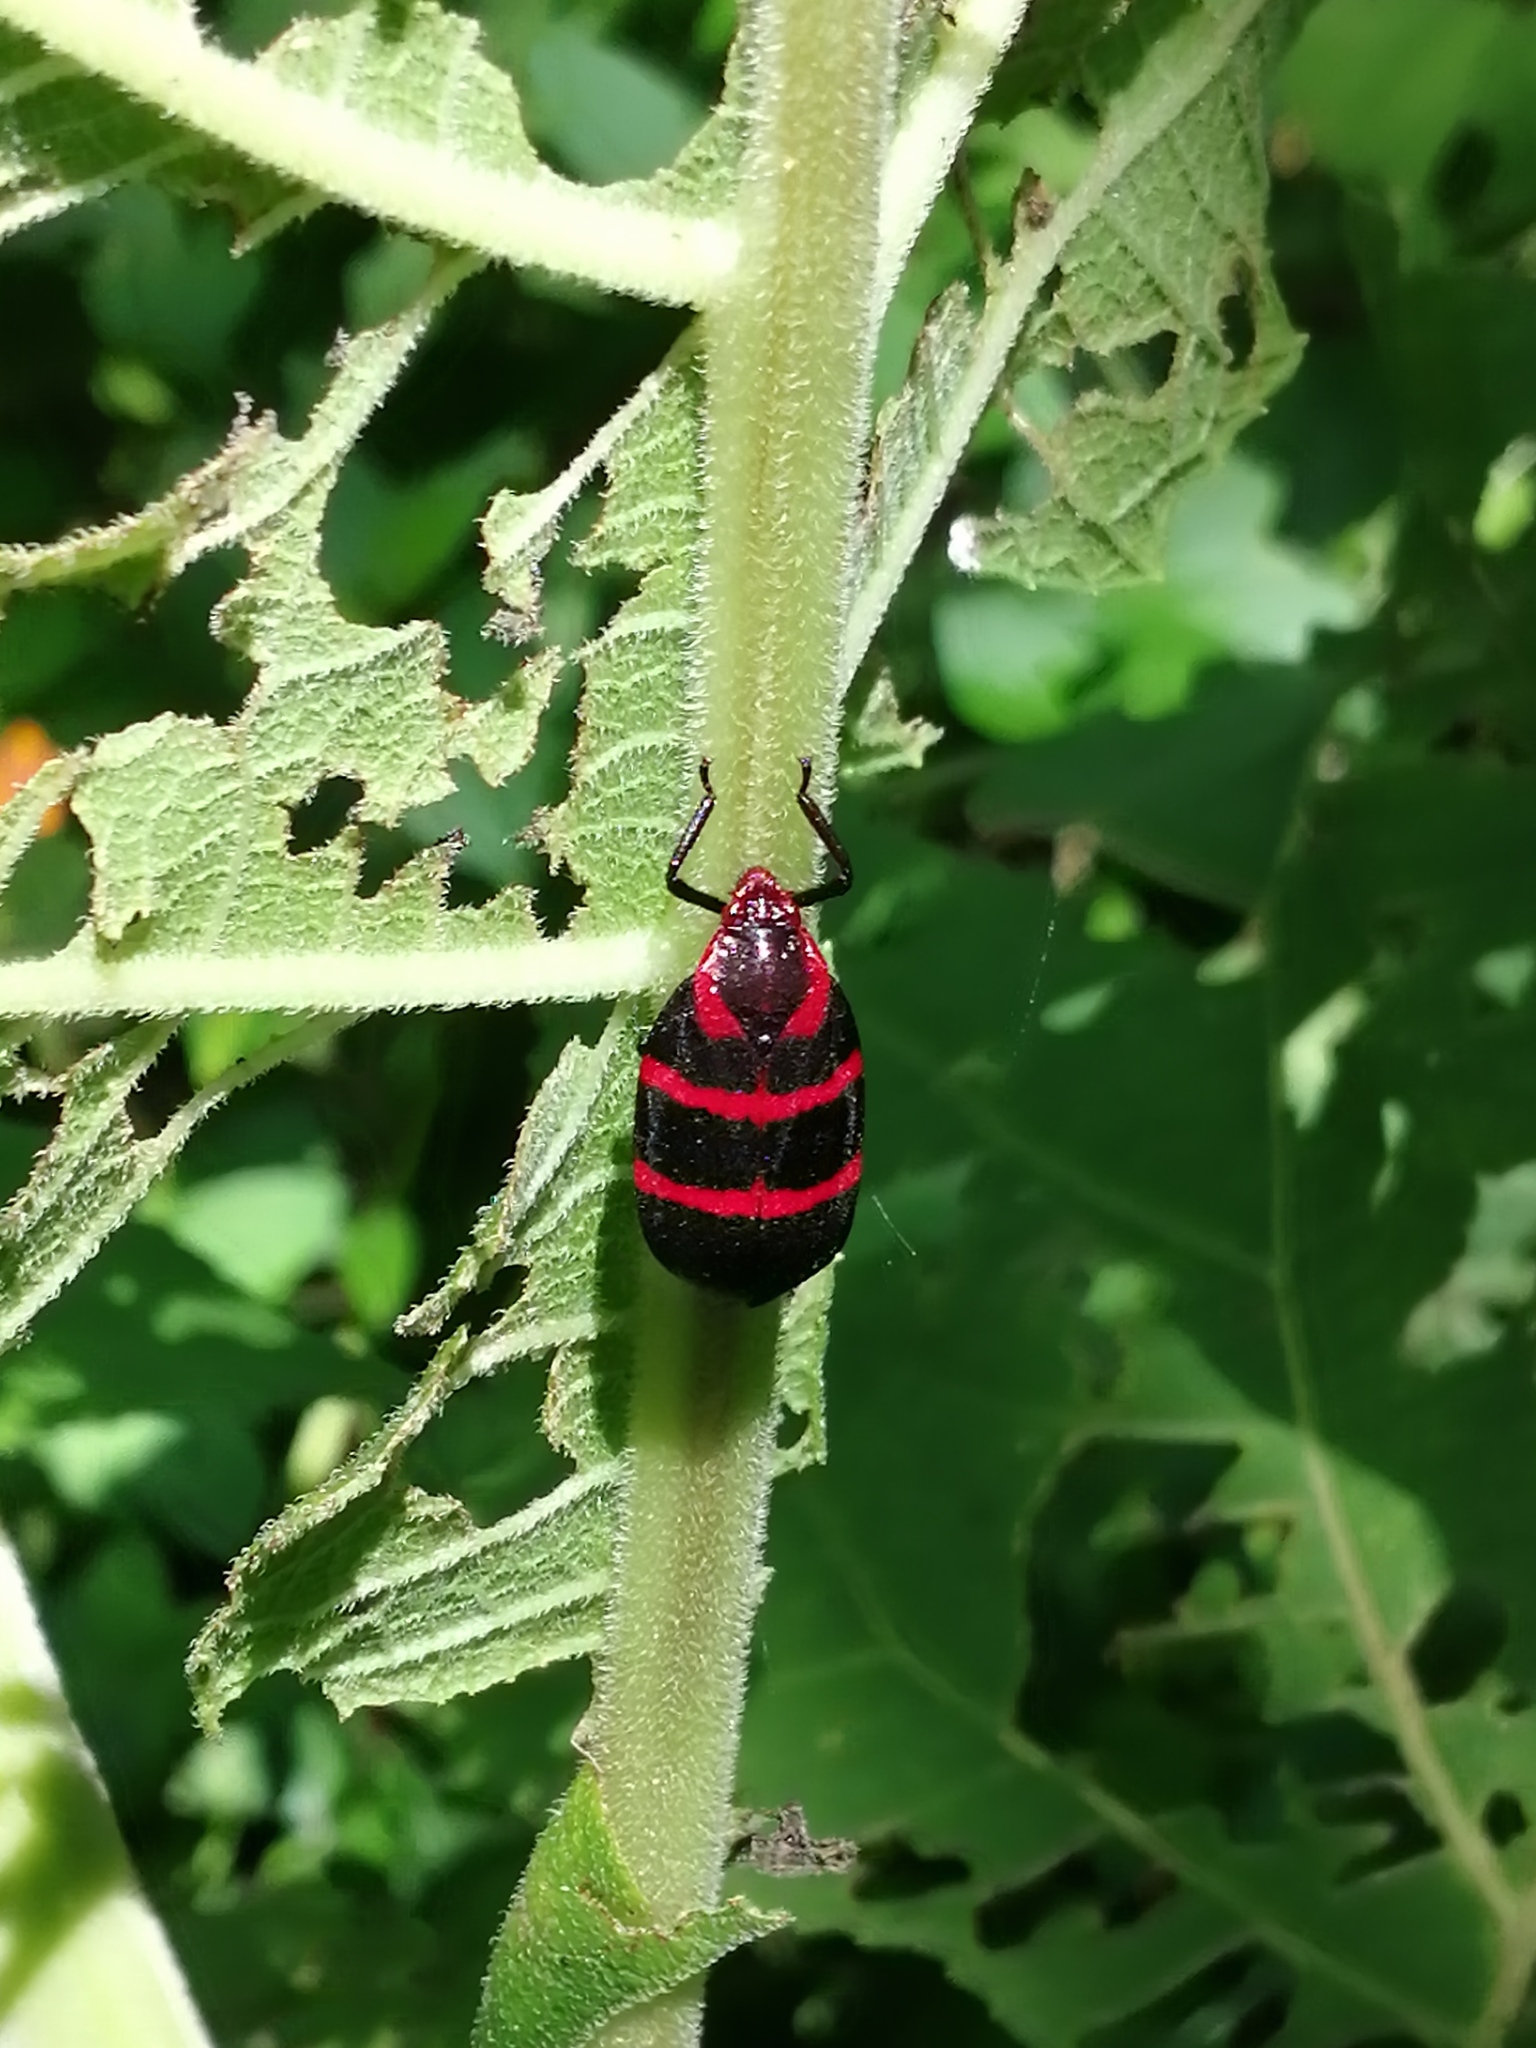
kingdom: Animalia
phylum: Arthropoda
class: Insecta
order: Hemiptera
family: Cercopidae
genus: Huaina
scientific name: Huaina inca
